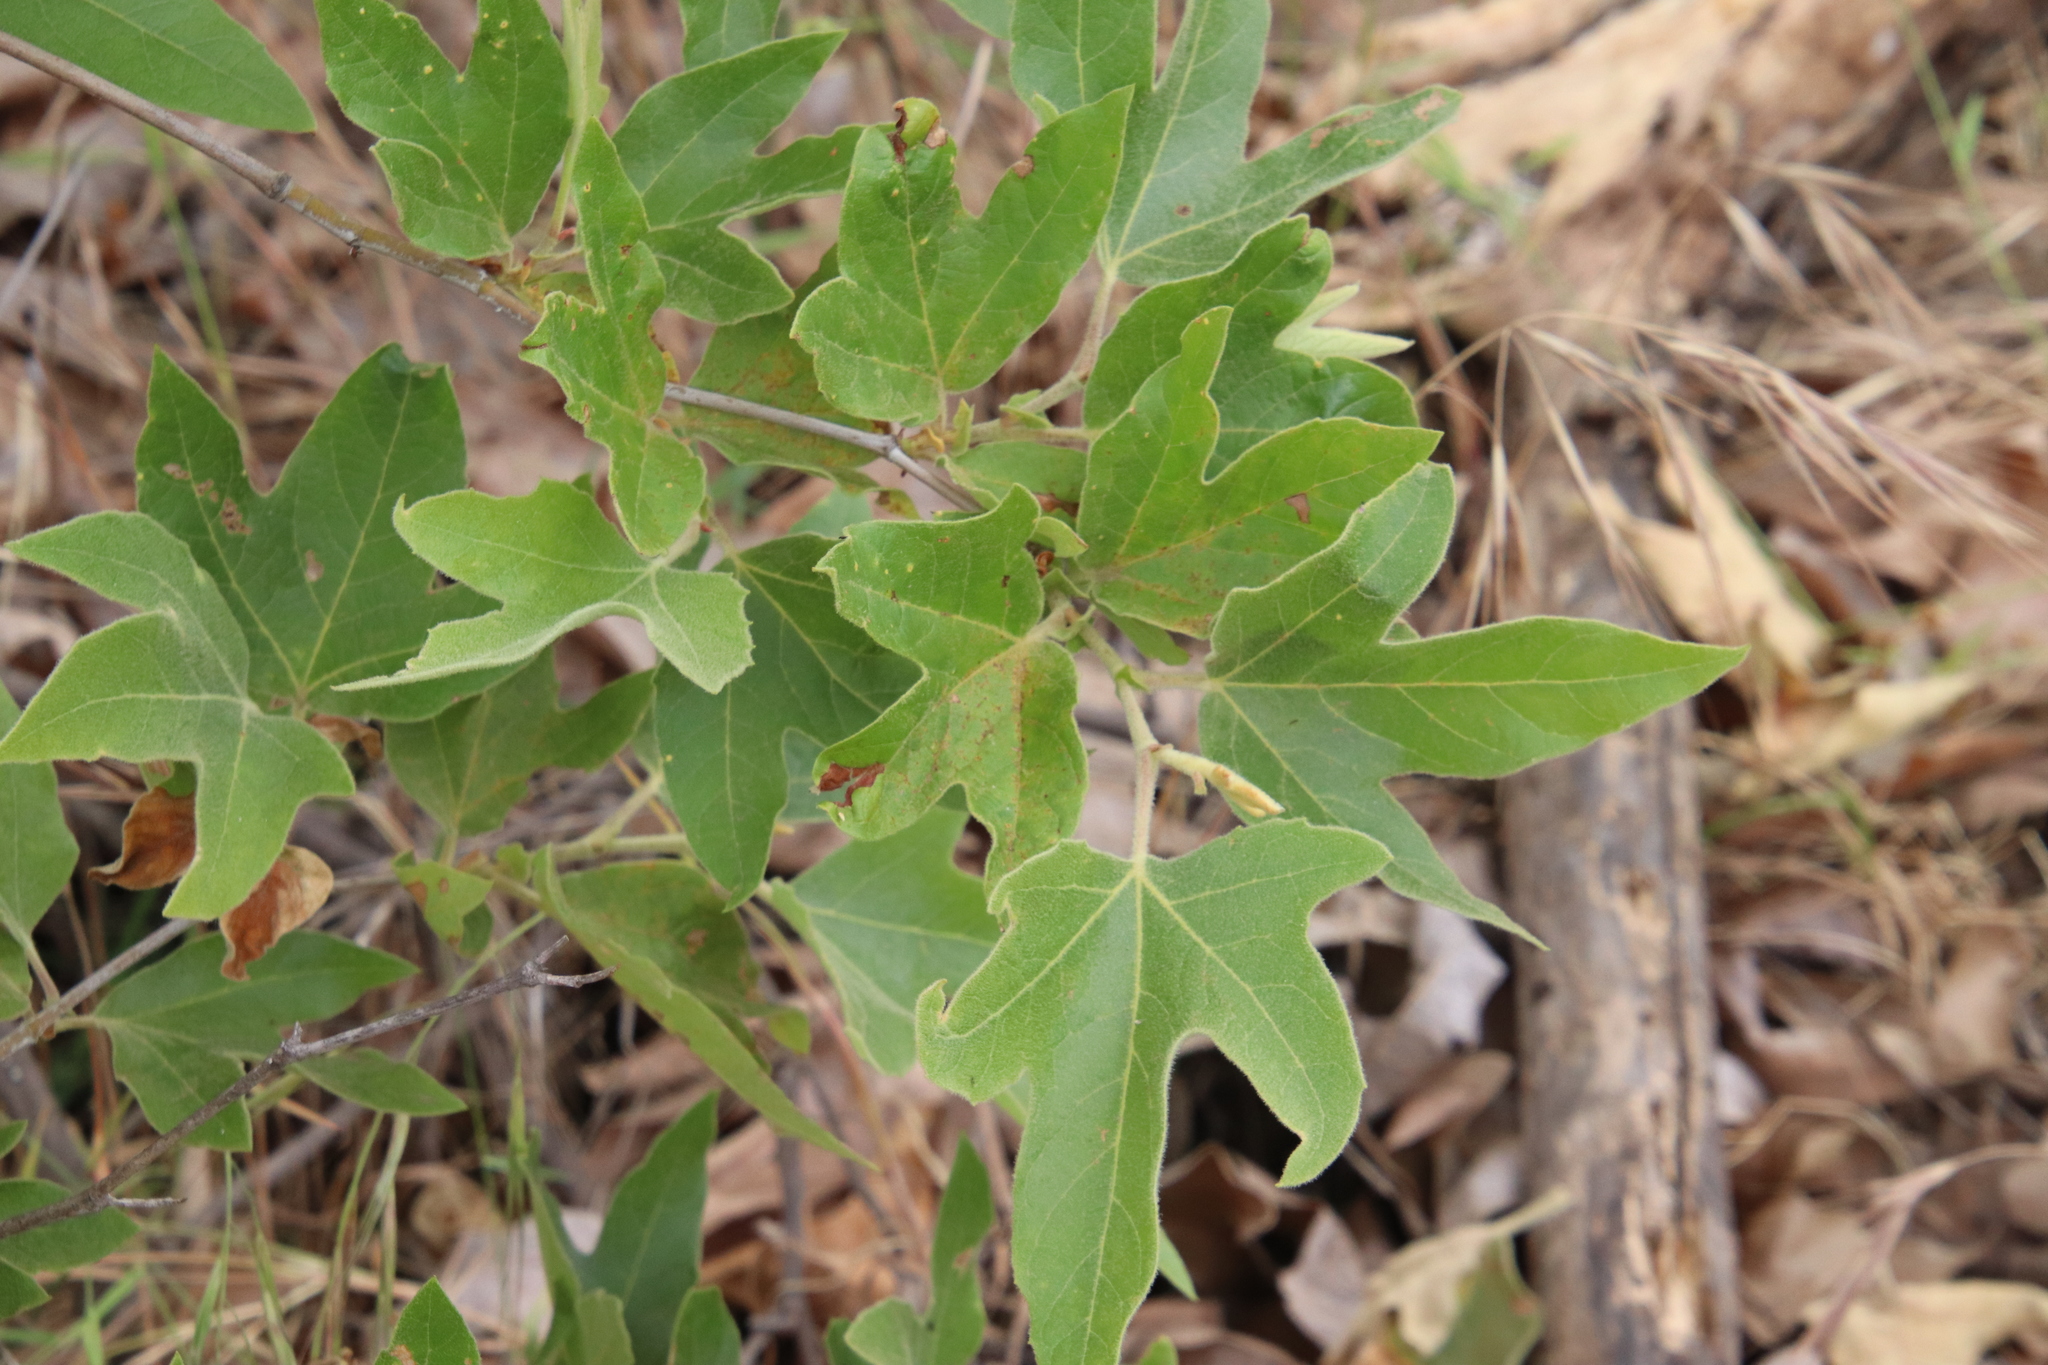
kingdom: Plantae
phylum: Tracheophyta
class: Magnoliopsida
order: Proteales
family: Platanaceae
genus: Platanus
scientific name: Platanus racemosa
